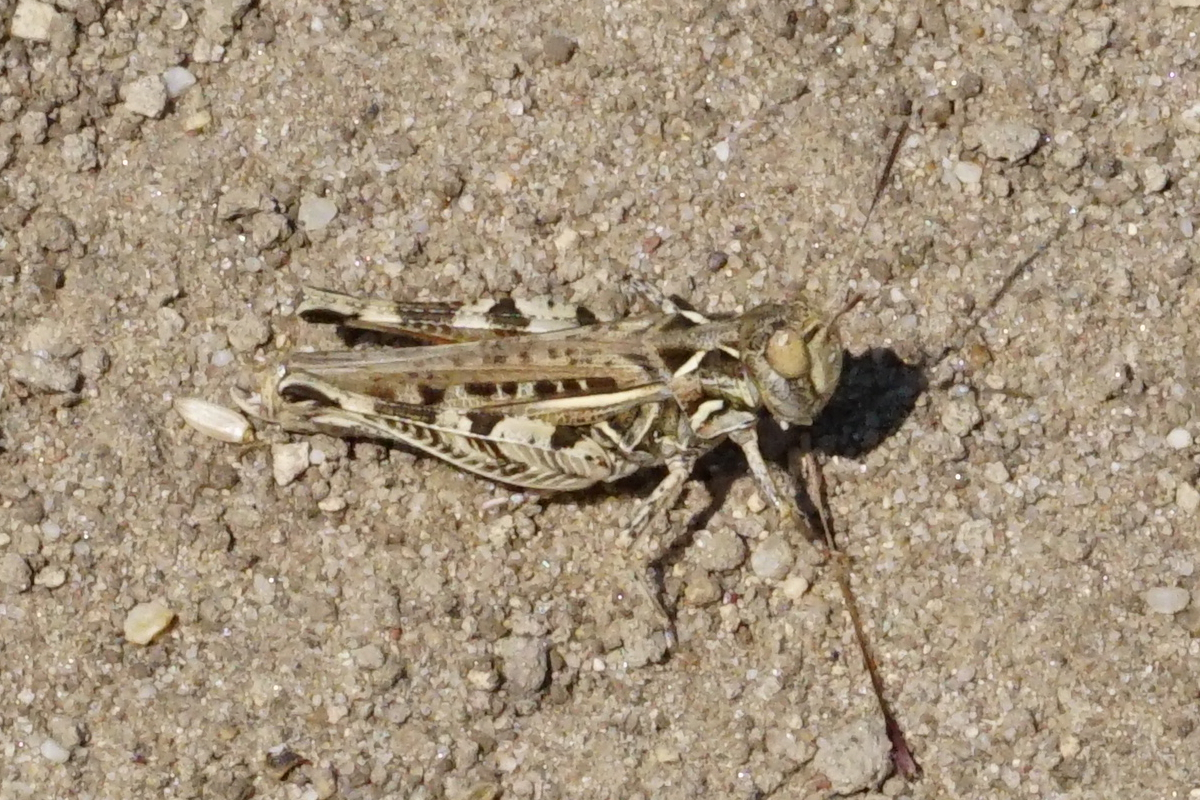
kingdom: Animalia
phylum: Arthropoda
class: Insecta
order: Orthoptera
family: Acrididae
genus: Dociostaurus
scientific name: Dociostaurus brevicollis
